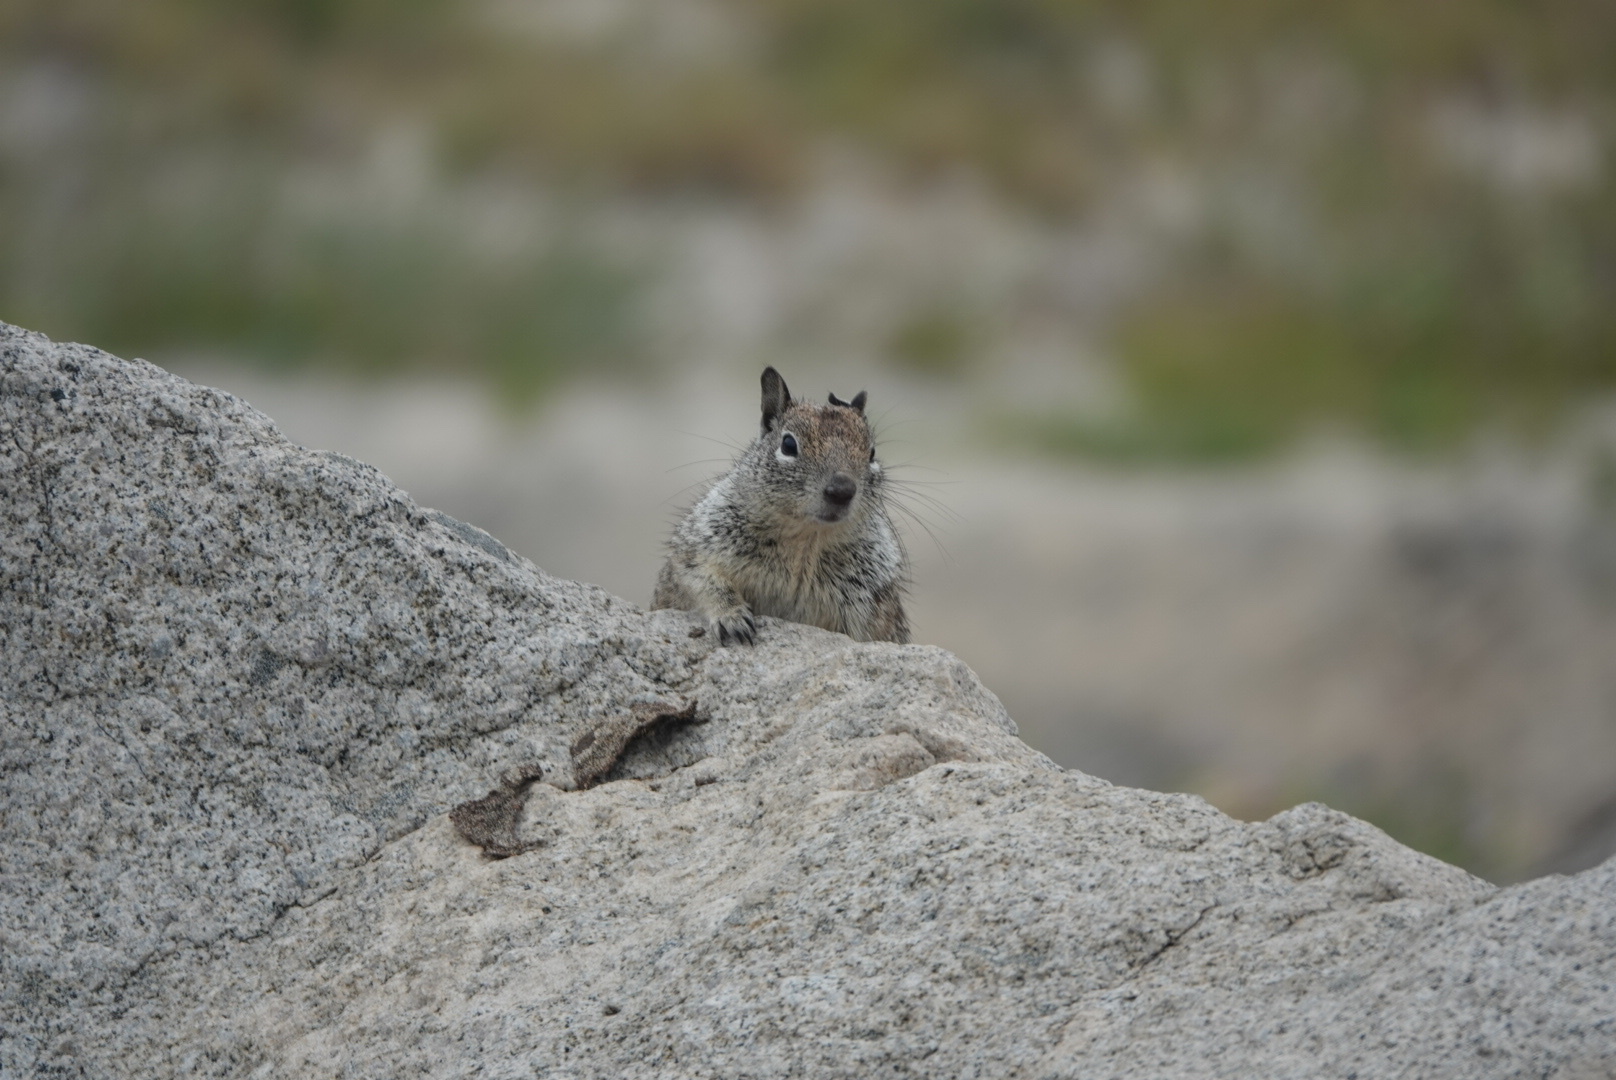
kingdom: Animalia
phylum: Chordata
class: Mammalia
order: Rodentia
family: Sciuridae
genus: Otospermophilus
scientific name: Otospermophilus beecheyi
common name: California ground squirrel
